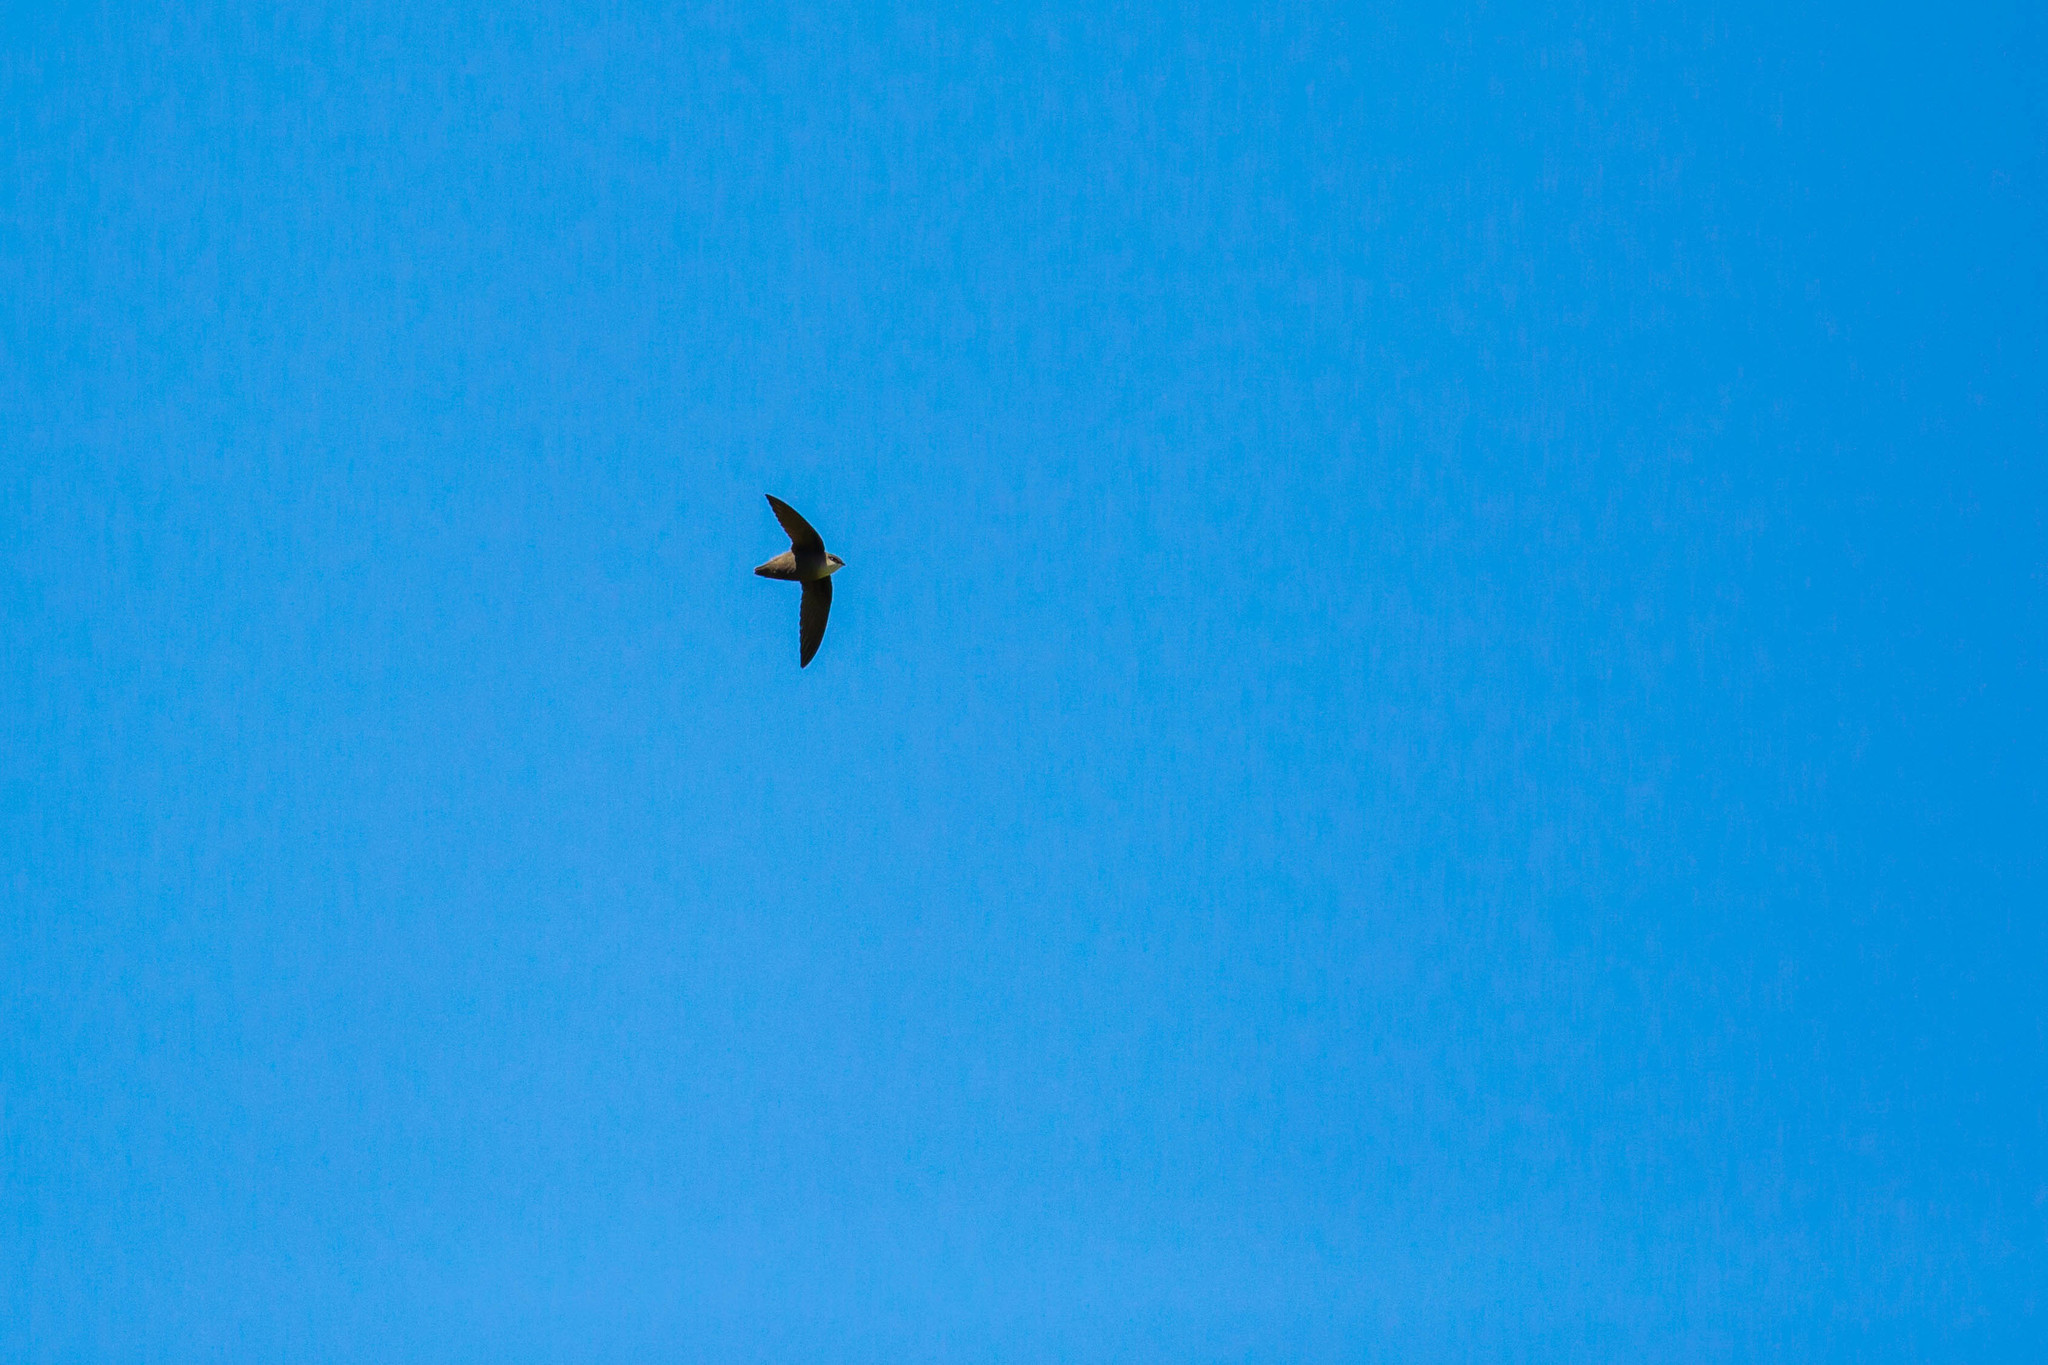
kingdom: Animalia
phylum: Chordata
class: Aves
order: Apodiformes
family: Apodidae
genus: Chaetura
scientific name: Chaetura pelagica
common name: Chimney swift
